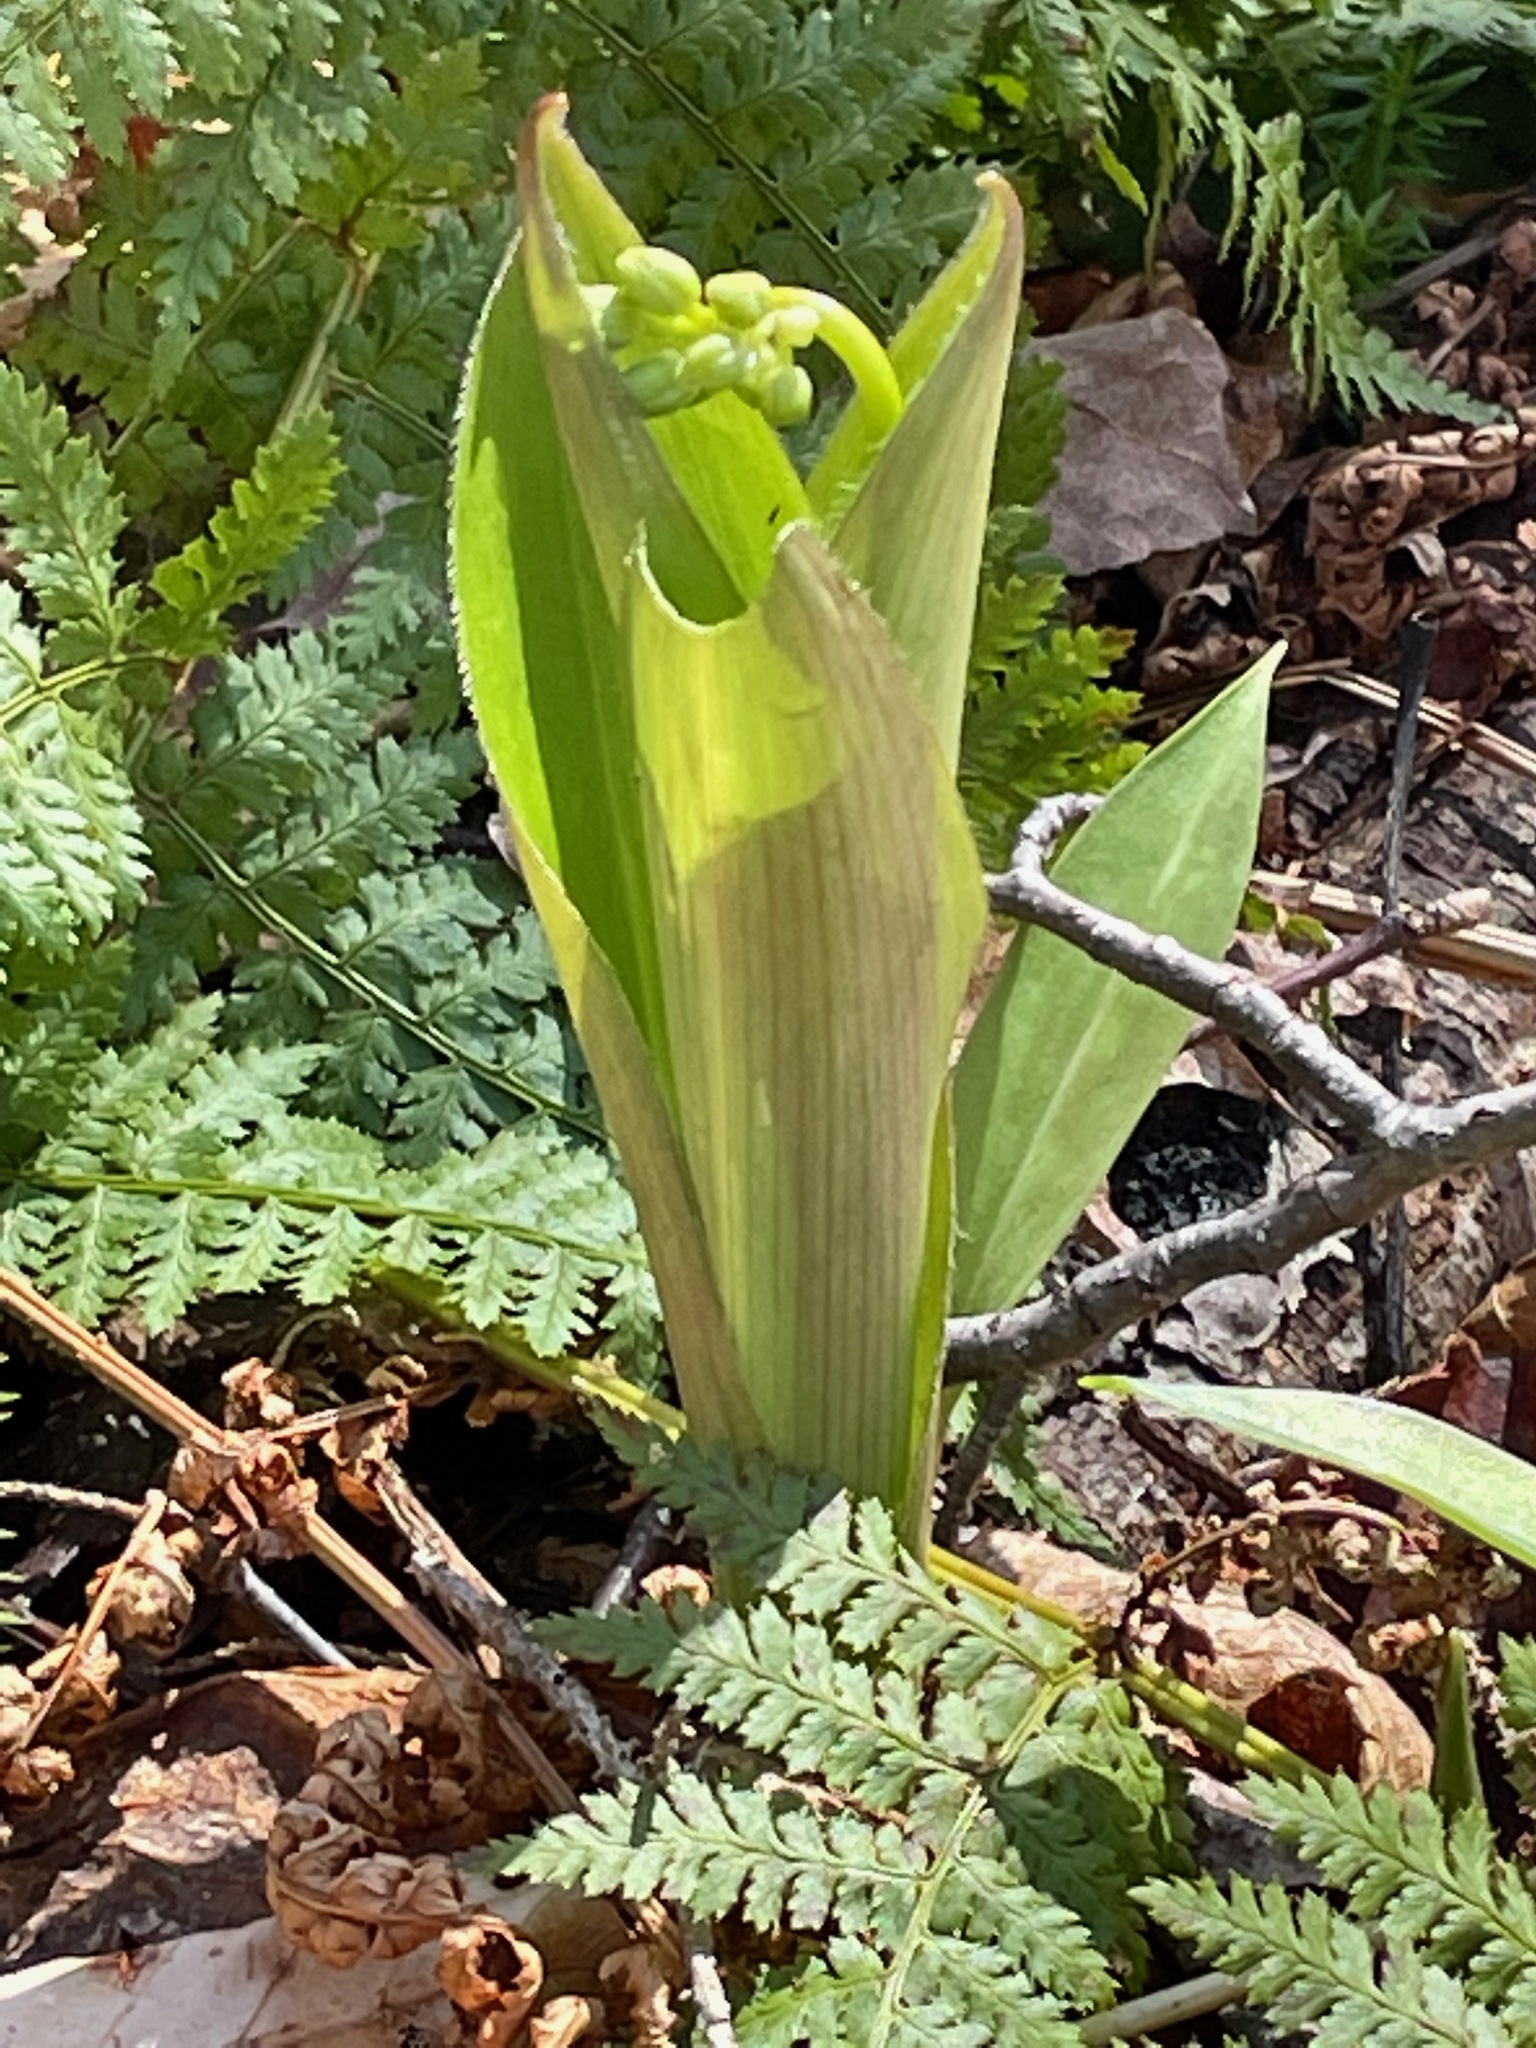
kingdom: Plantae
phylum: Tracheophyta
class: Liliopsida
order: Liliales
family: Liliaceae
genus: Clintonia
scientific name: Clintonia borealis
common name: Yellow clintonia
